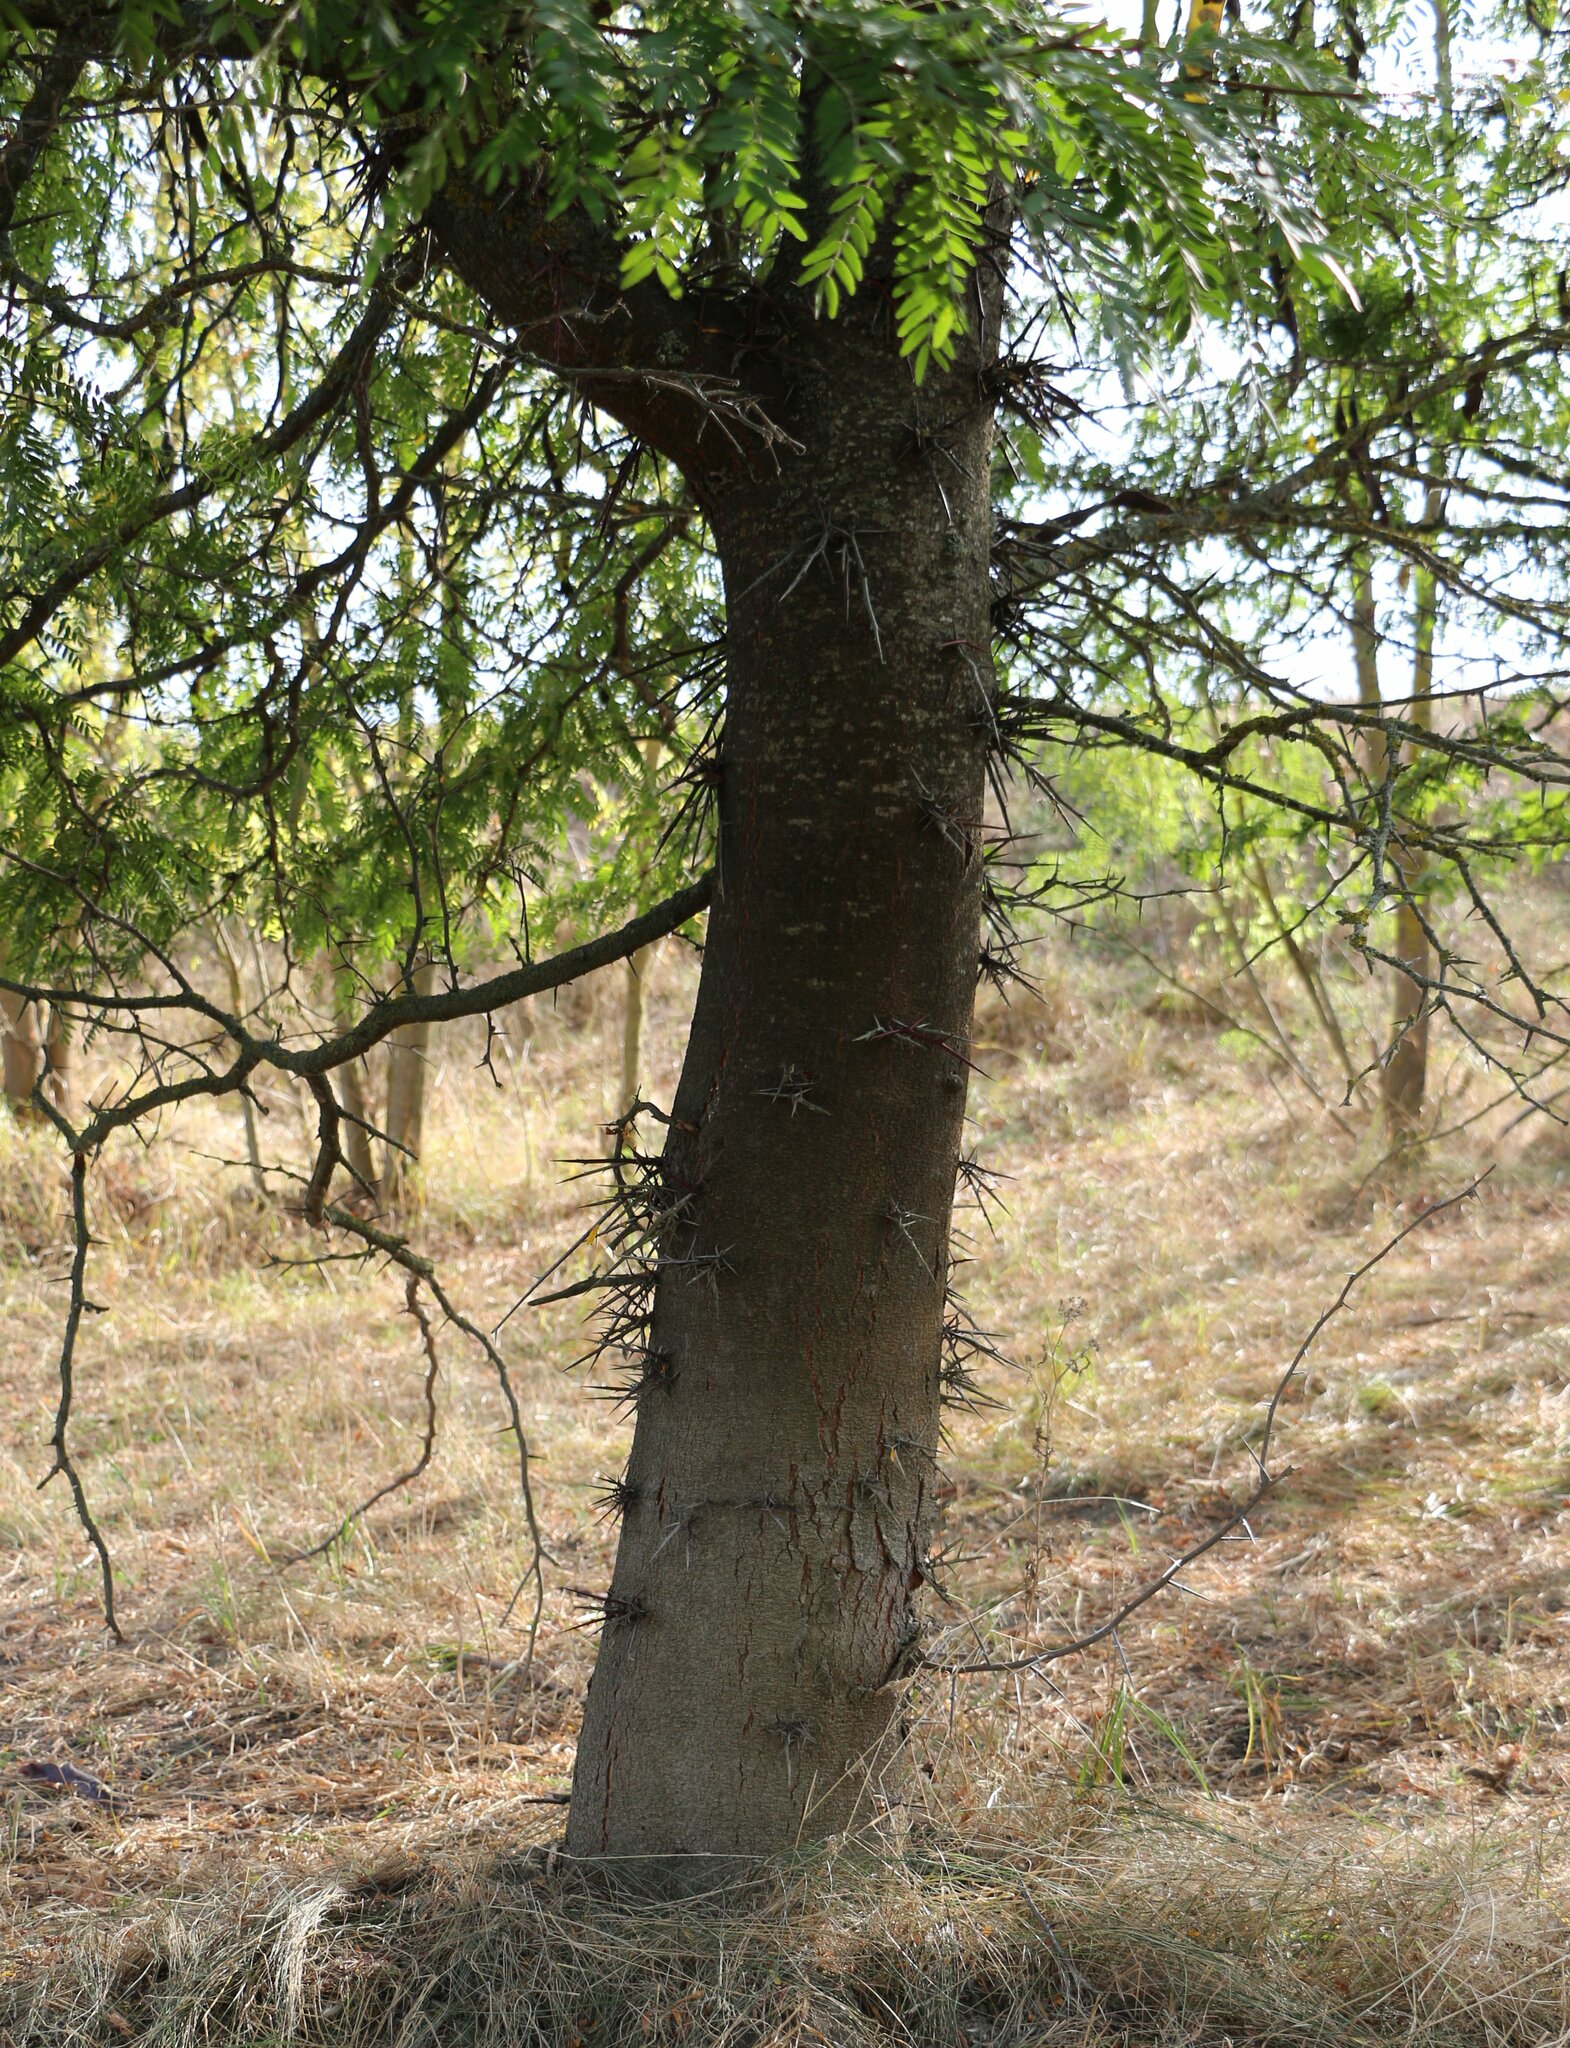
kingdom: Plantae
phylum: Tracheophyta
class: Magnoliopsida
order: Fabales
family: Fabaceae
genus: Gleditsia
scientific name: Gleditsia triacanthos
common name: Common honeylocust
